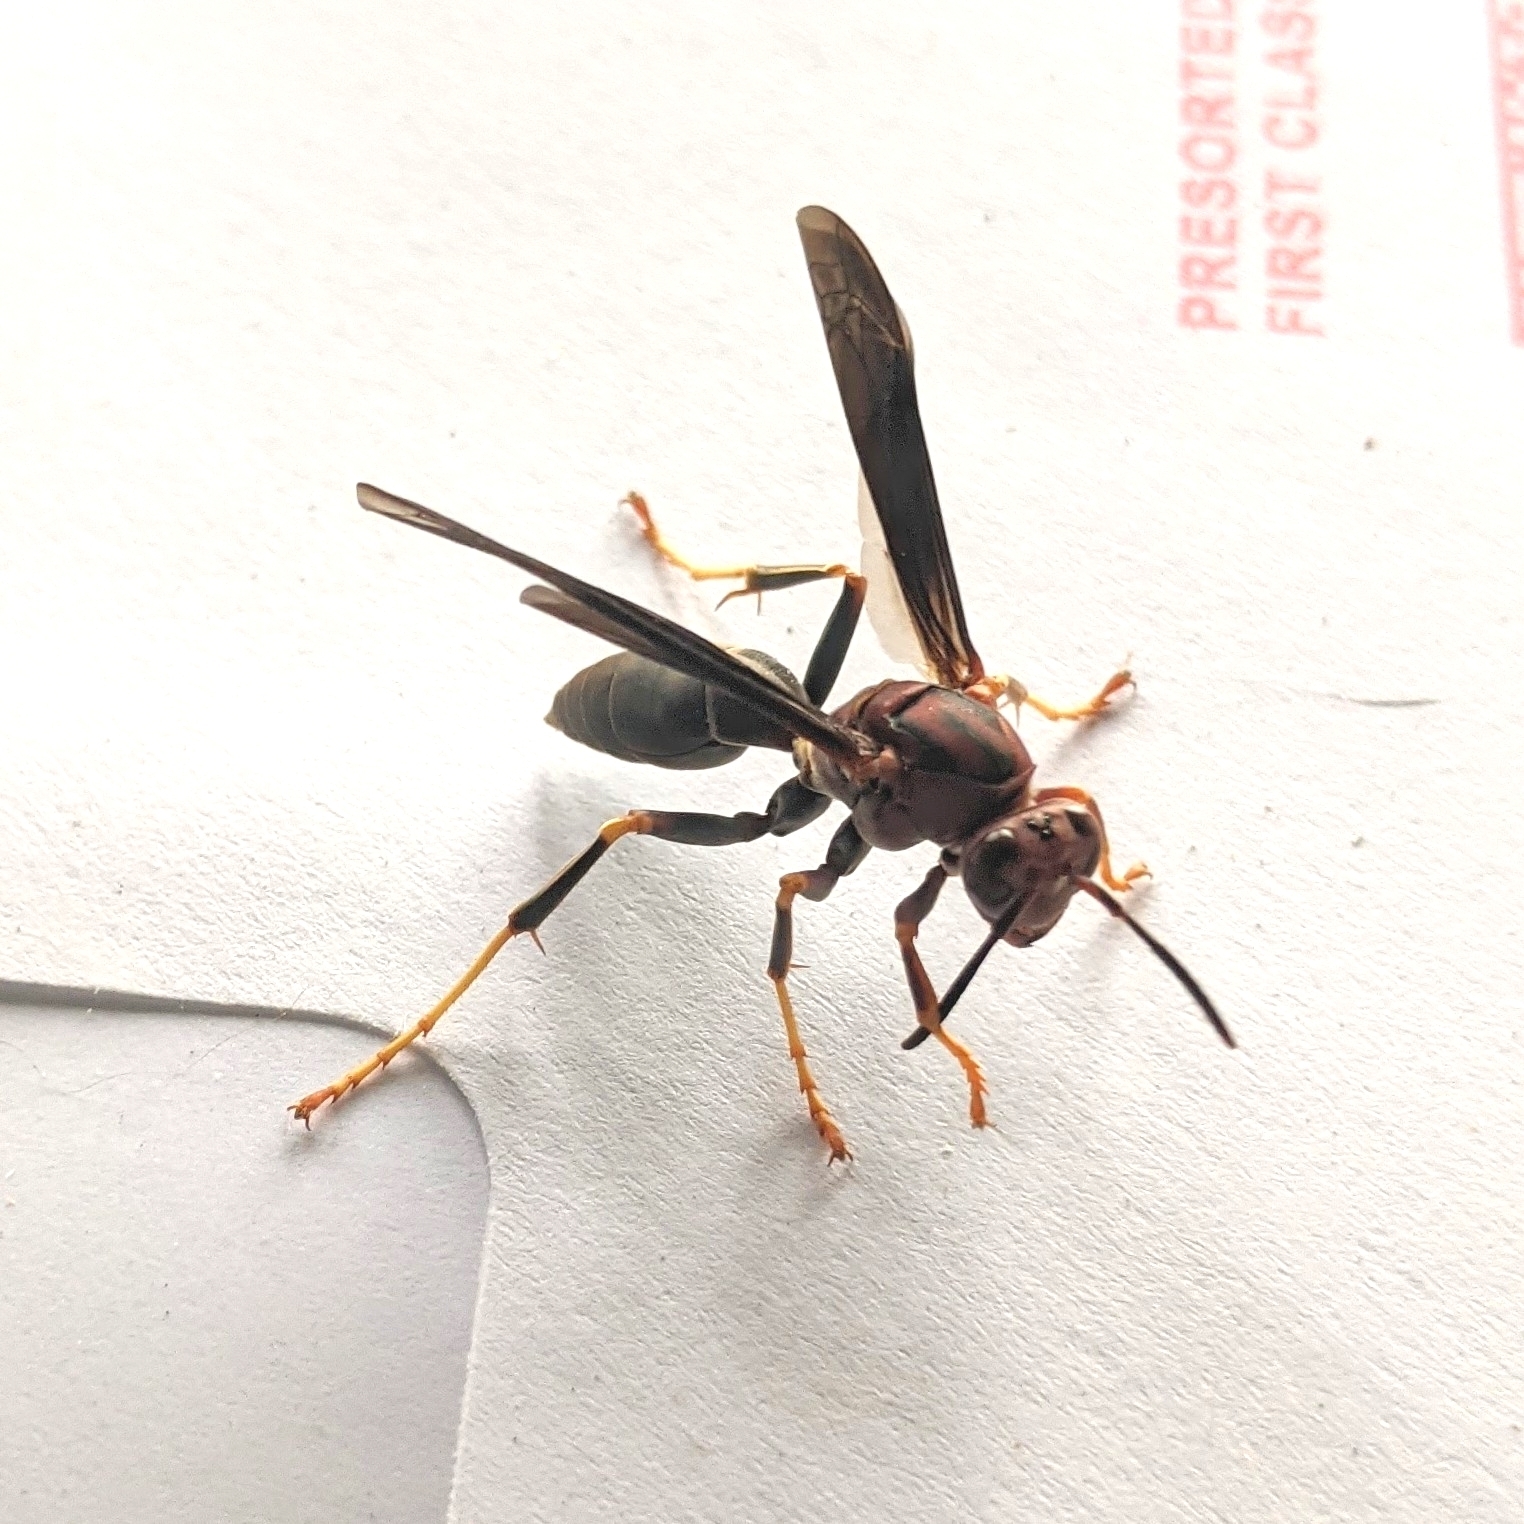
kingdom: Animalia
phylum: Arthropoda
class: Insecta
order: Hymenoptera
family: Eumenidae
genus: Polistes
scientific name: Polistes metricus
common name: Metric paper wasp
